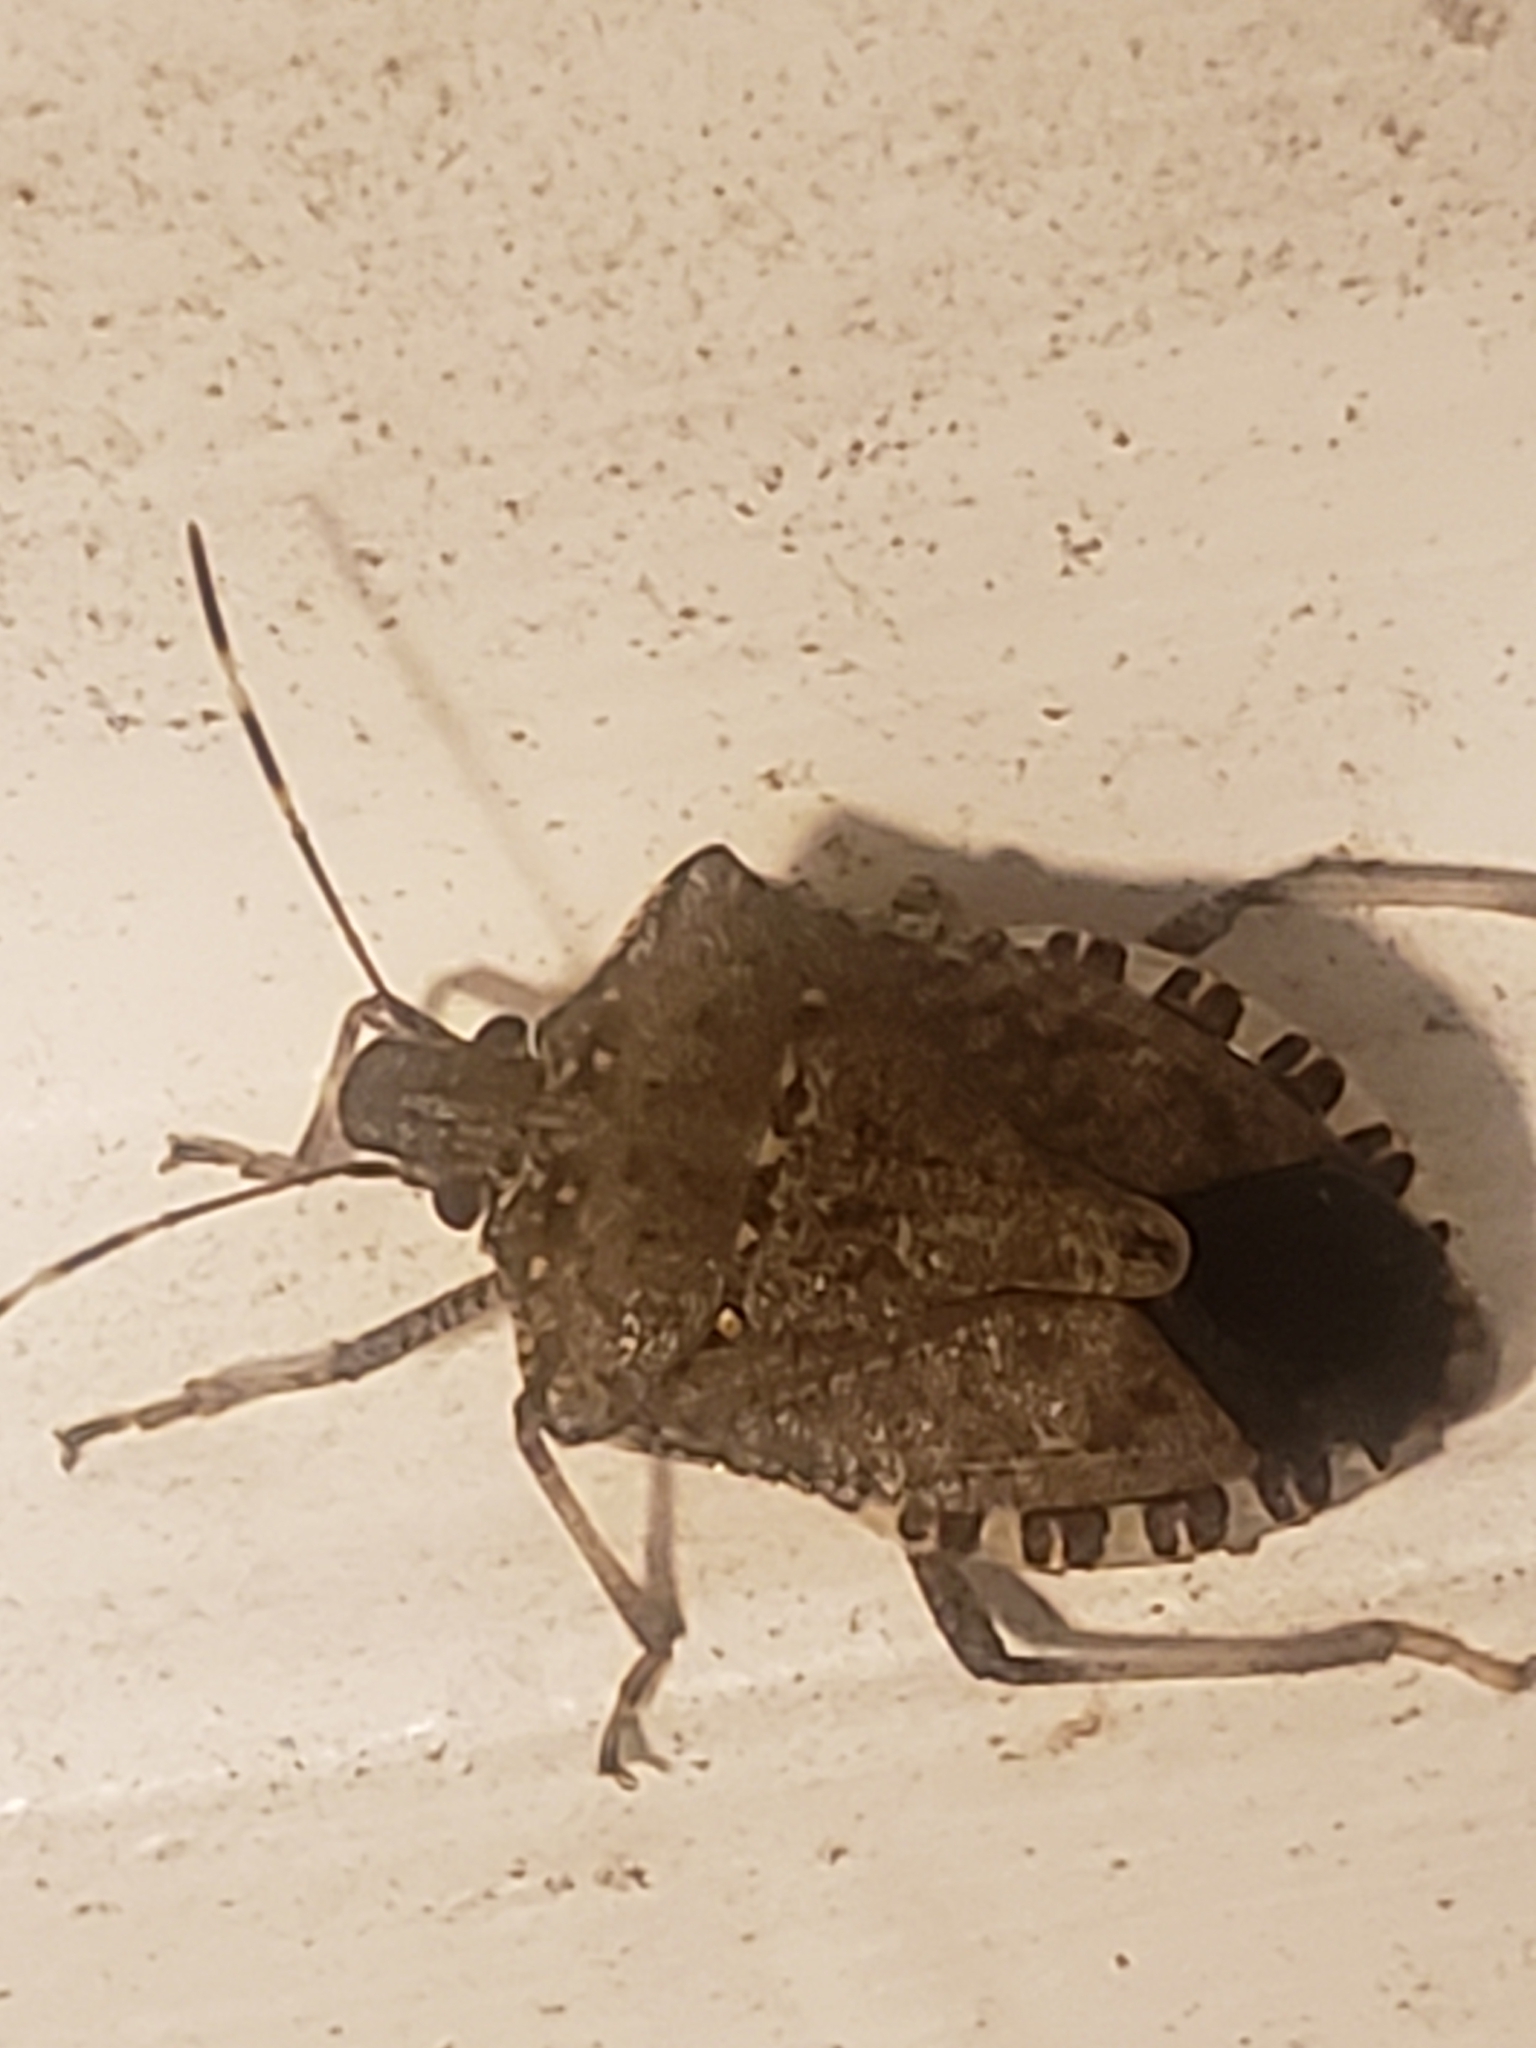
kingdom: Animalia
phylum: Arthropoda
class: Insecta
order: Hemiptera
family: Pentatomidae
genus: Halyomorpha
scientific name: Halyomorpha halys
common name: Brown marmorated stink bug
